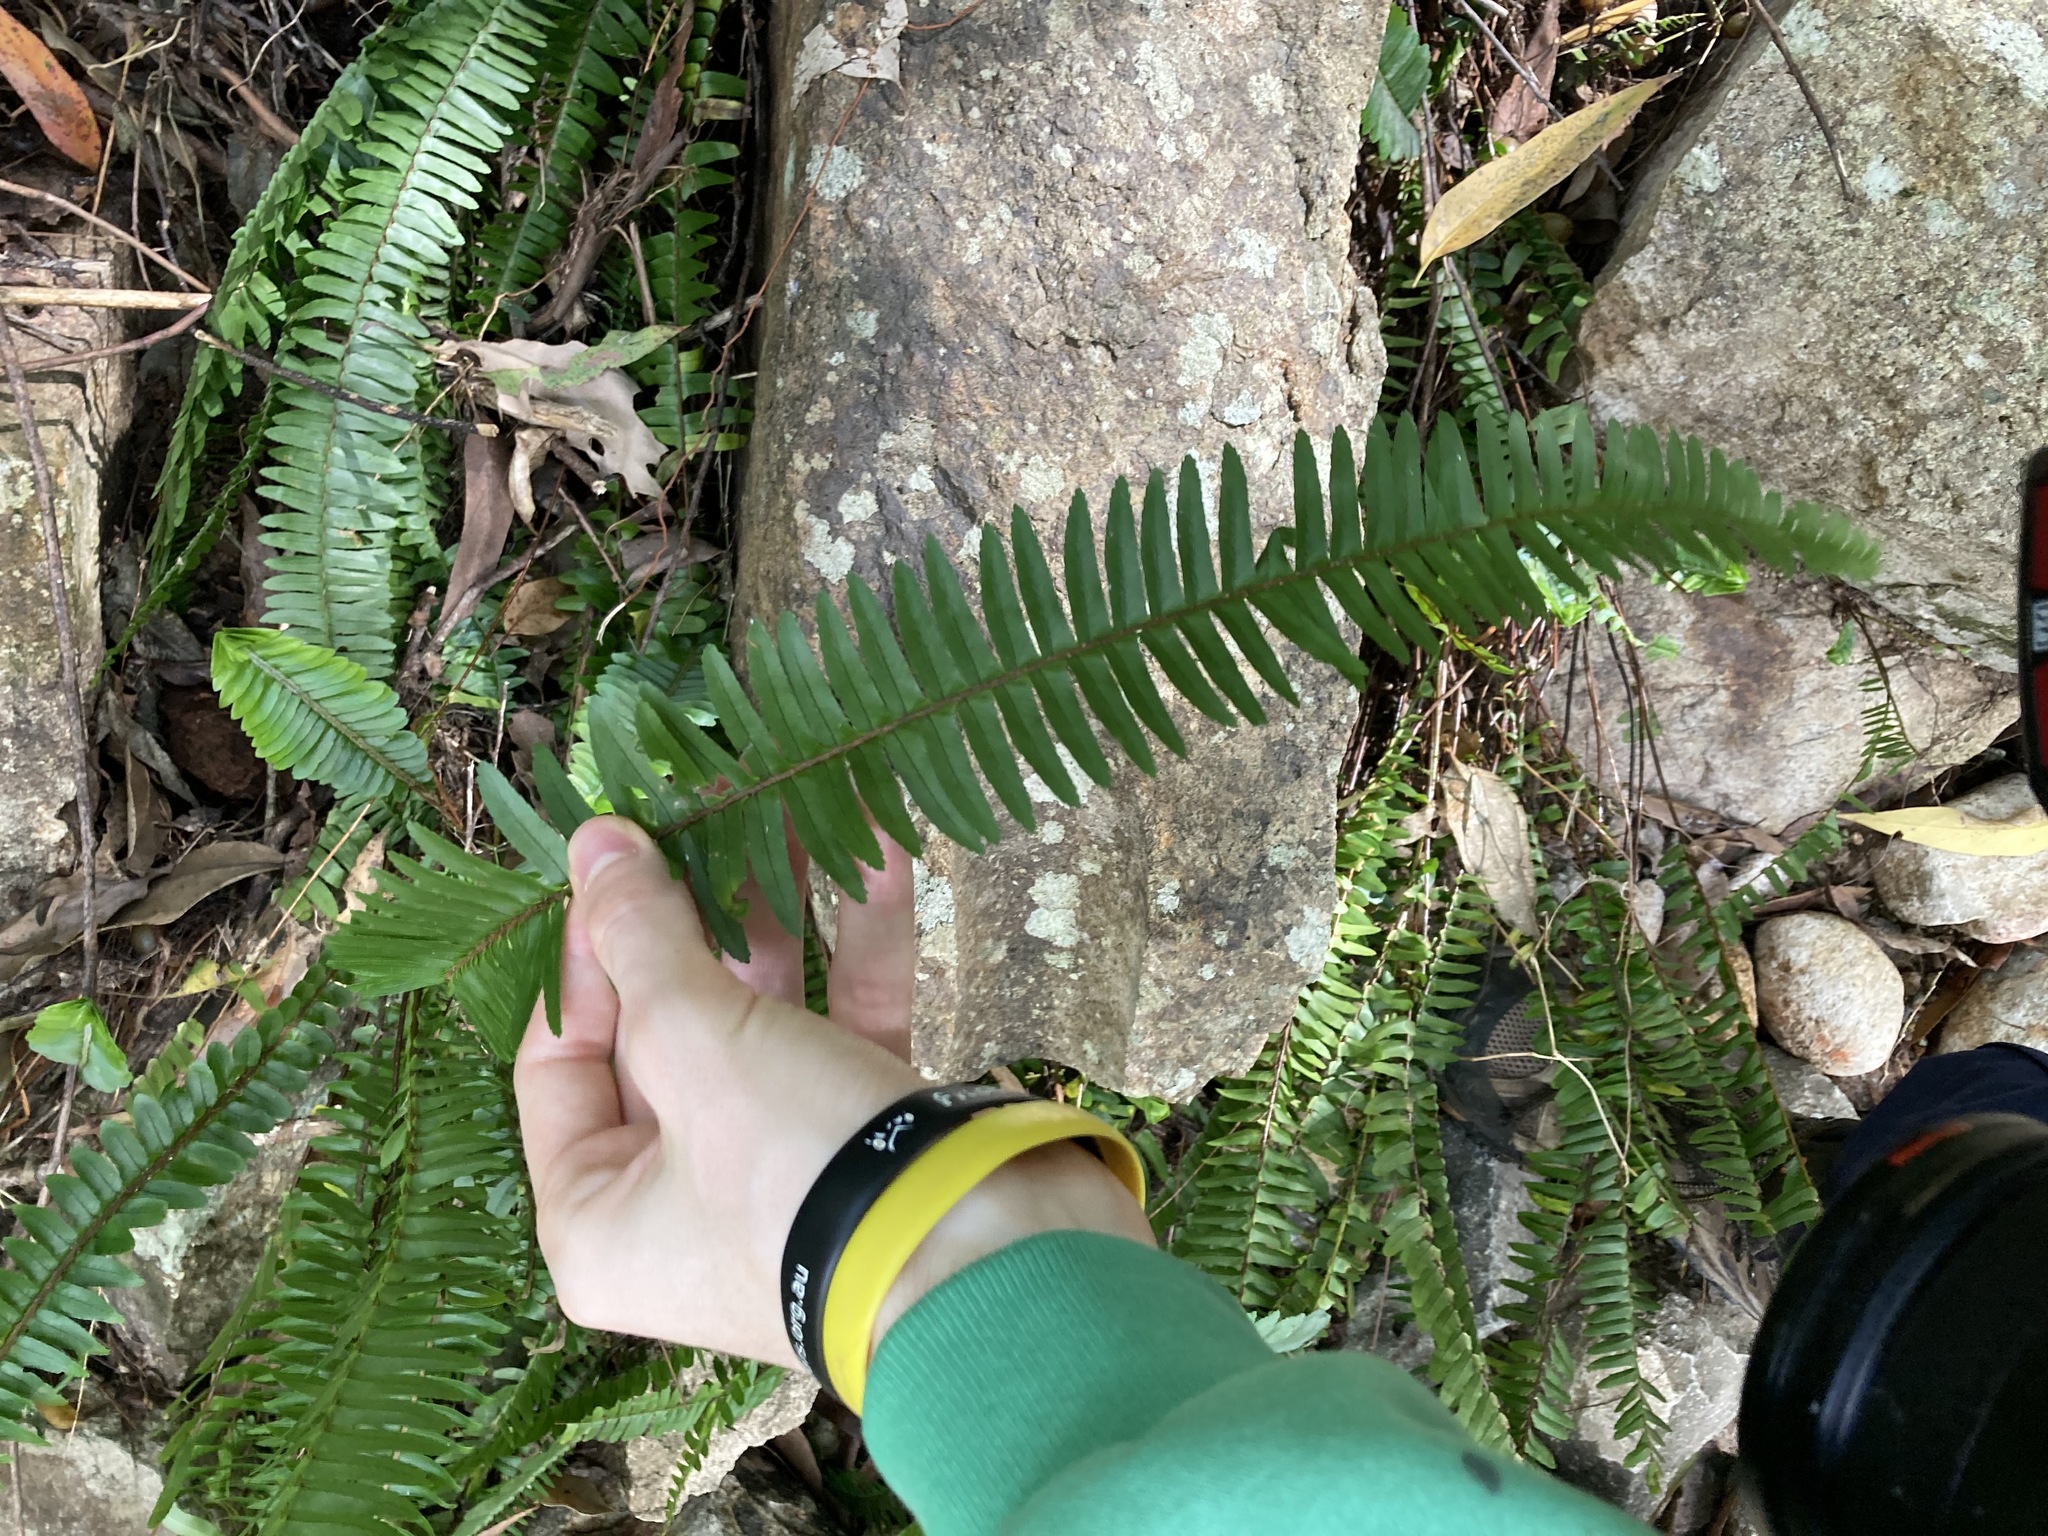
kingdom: Plantae
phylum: Tracheophyta
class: Polypodiopsida
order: Polypodiales
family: Nephrolepidaceae
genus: Nephrolepis
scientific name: Nephrolepis cordifolia
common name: Narrow swordfern
